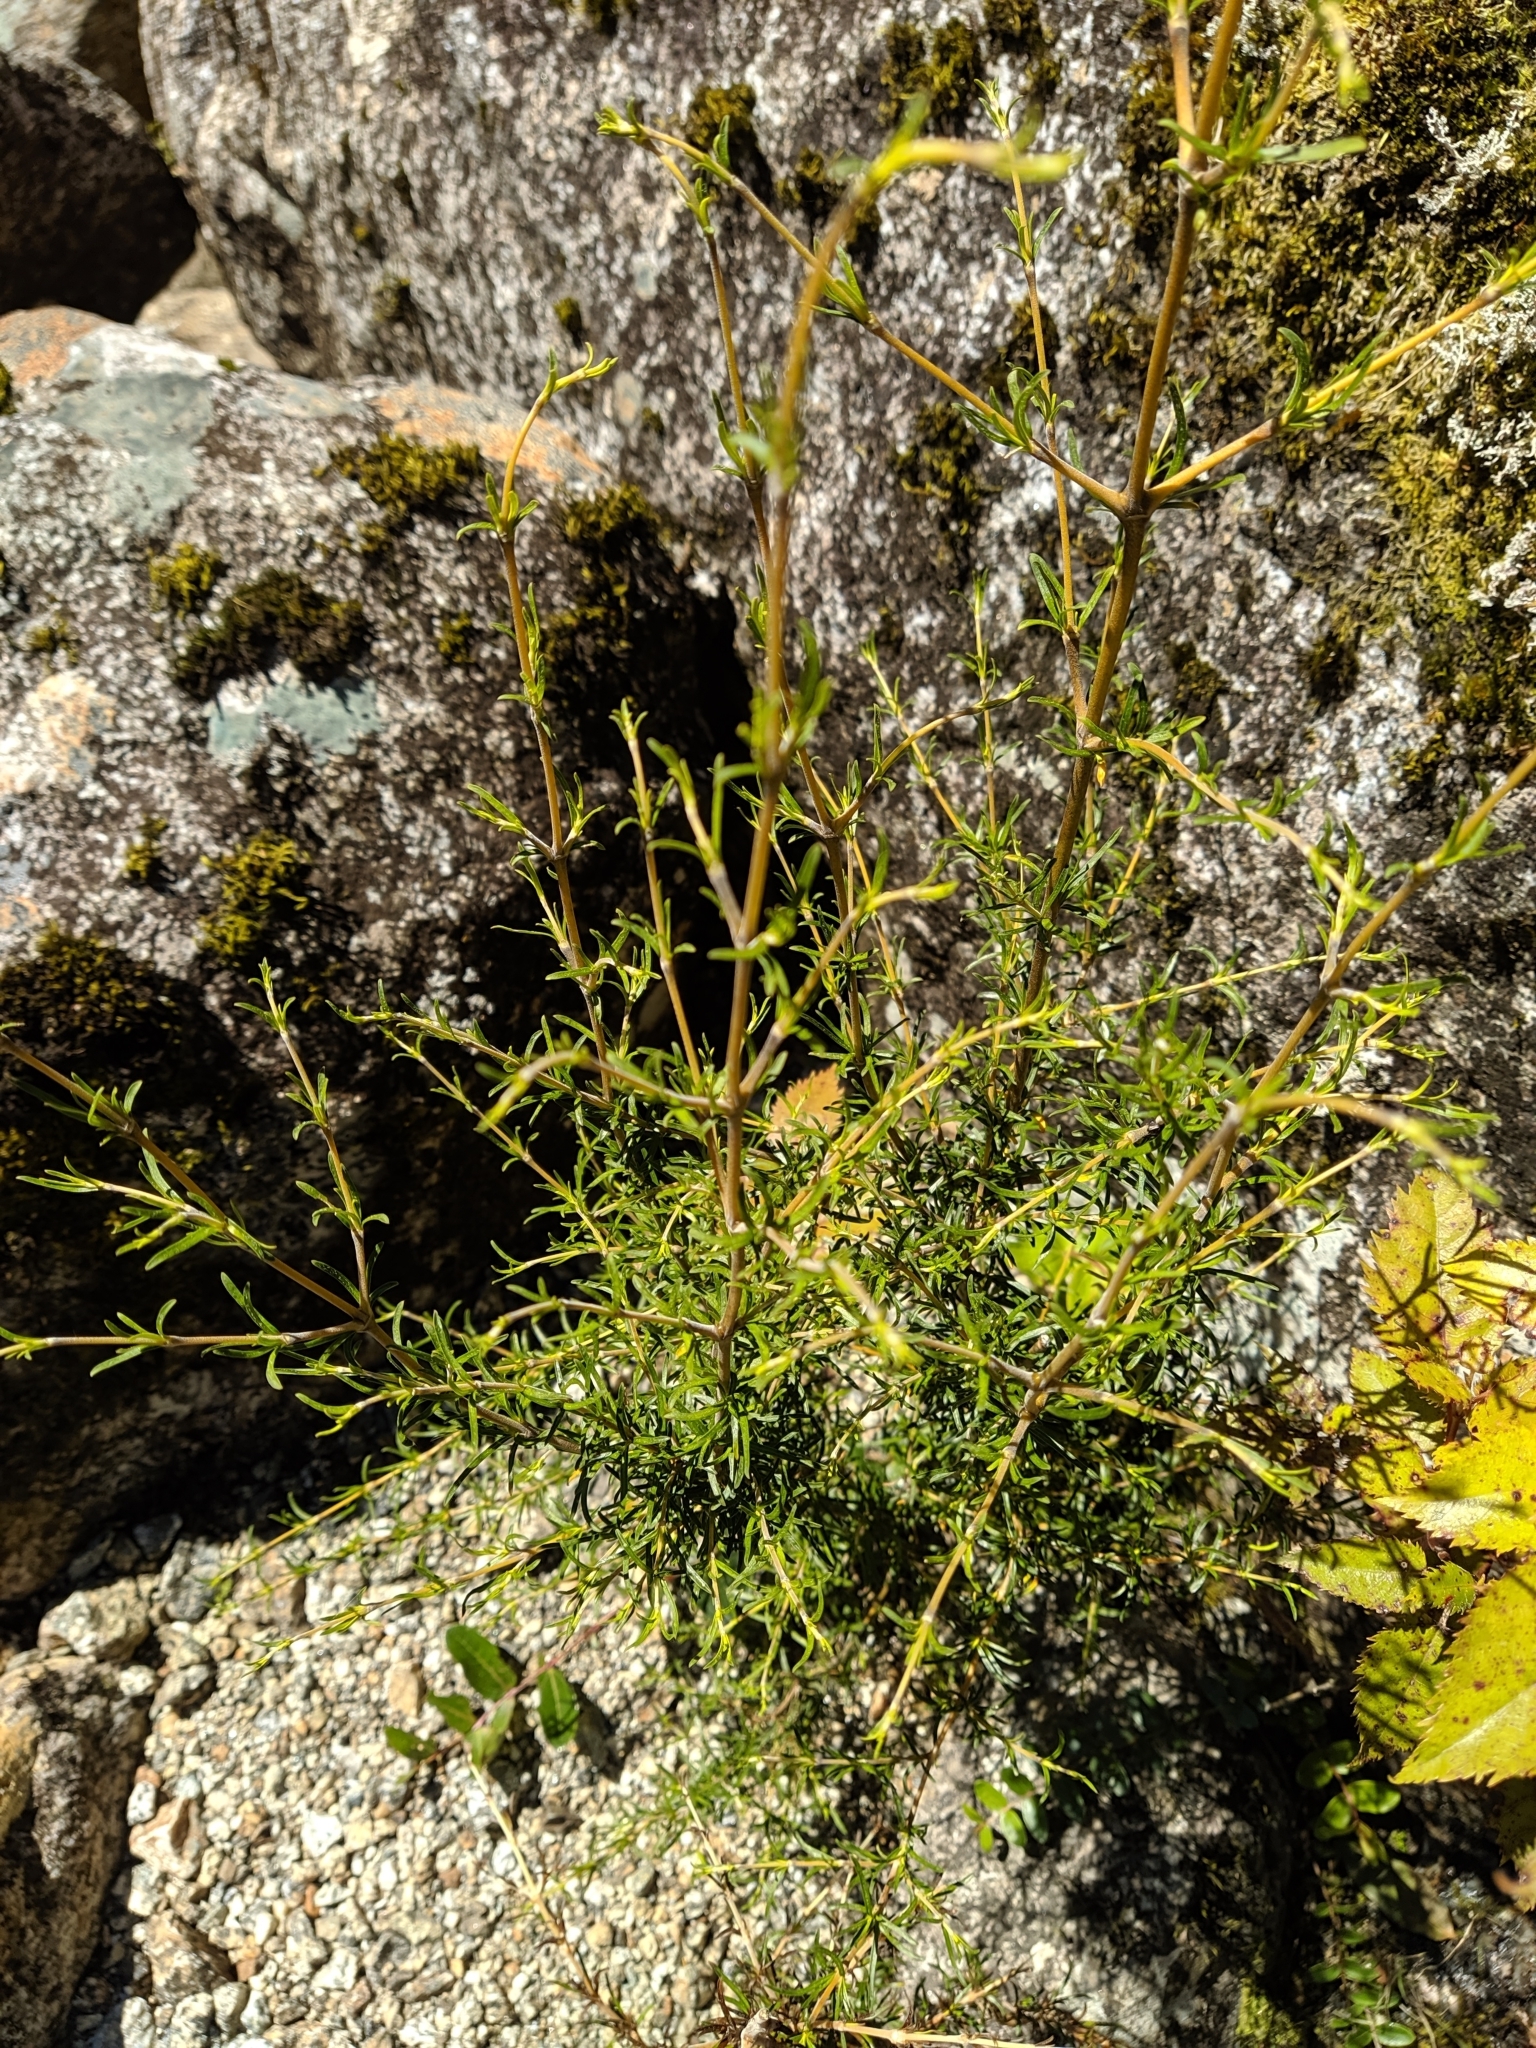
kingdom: Plantae
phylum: Tracheophyta
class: Magnoliopsida
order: Gentianales
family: Rubiaceae
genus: Coprosma
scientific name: Coprosma rugosa
